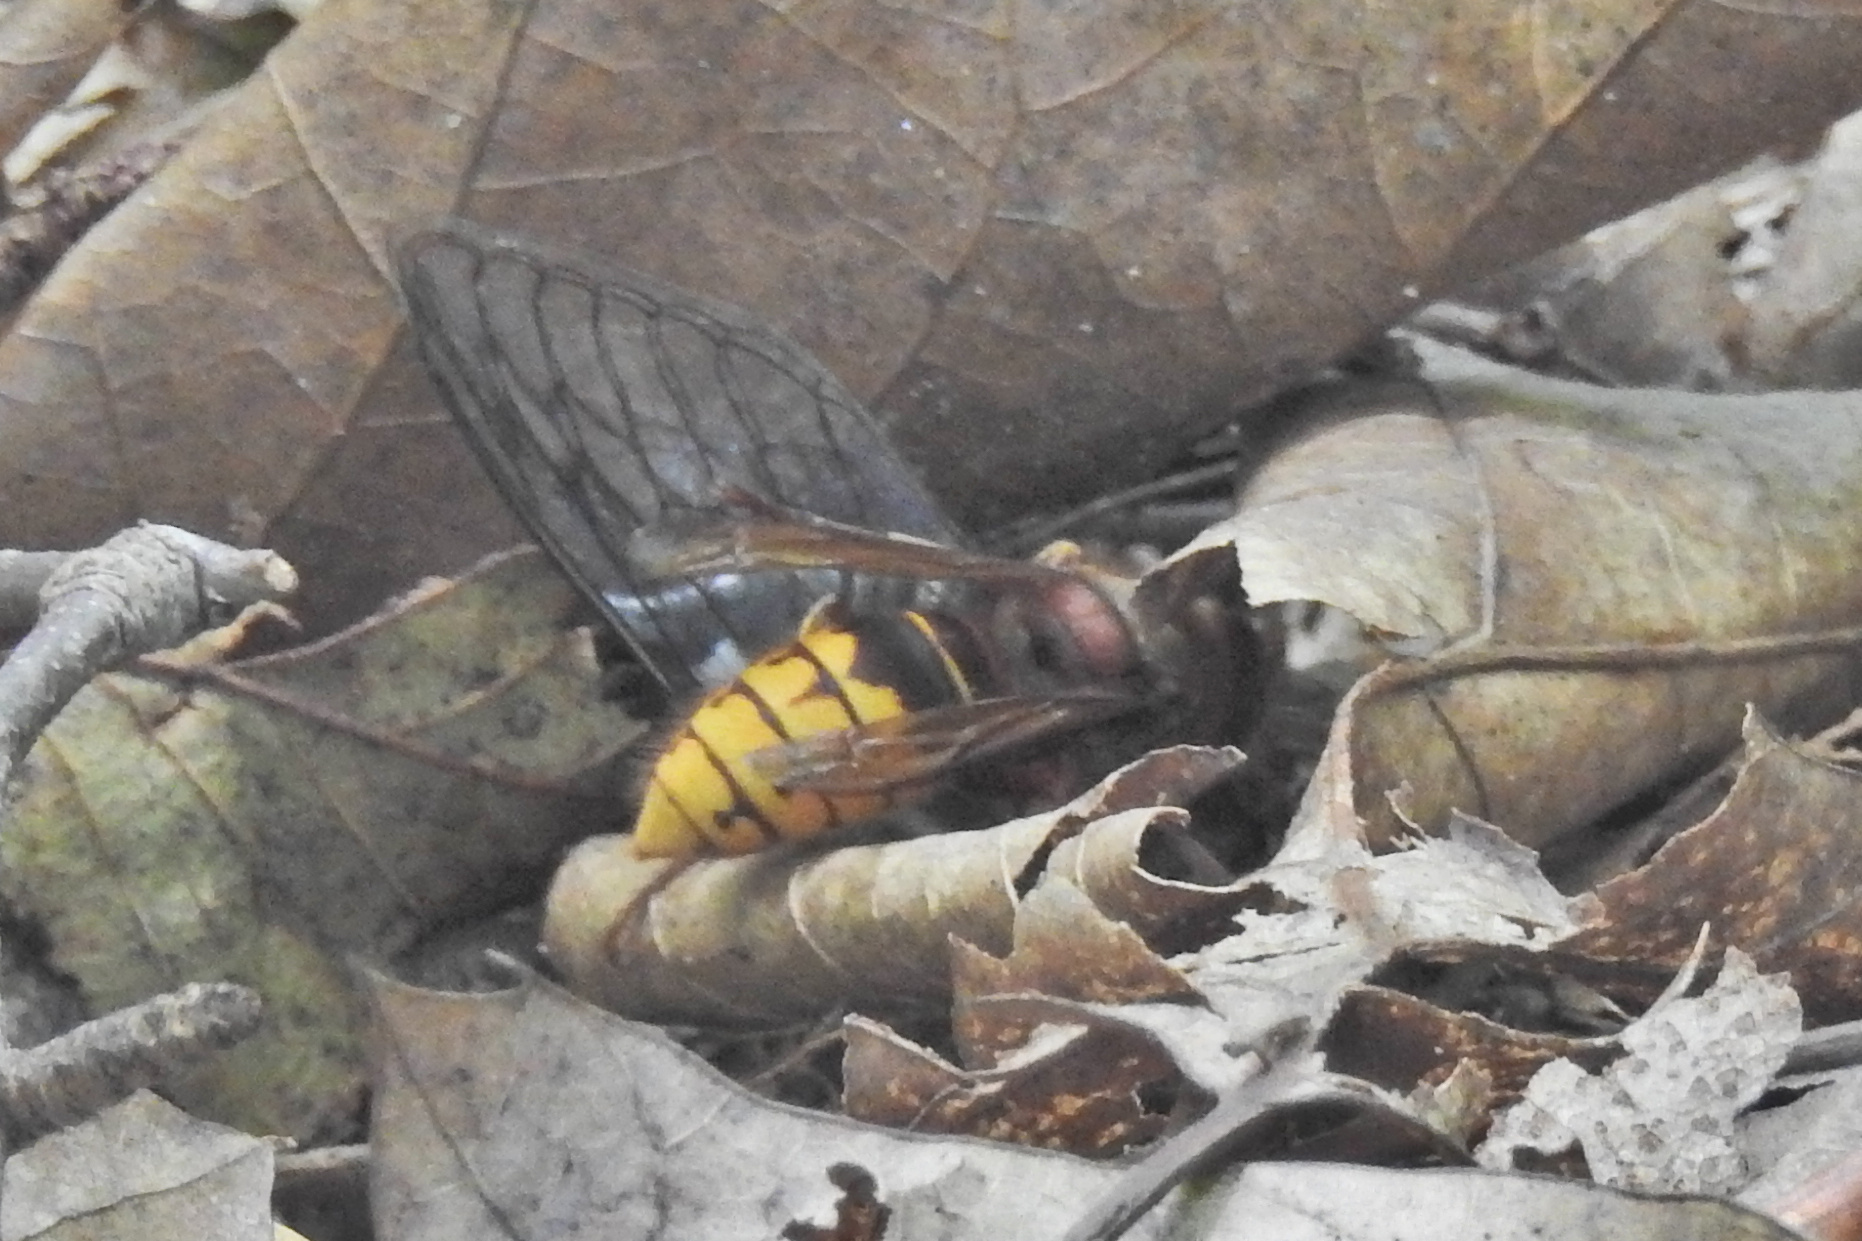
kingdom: Animalia
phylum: Arthropoda
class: Insecta
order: Hymenoptera
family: Vespidae
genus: Vespa
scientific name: Vespa crabro
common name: Hornet
